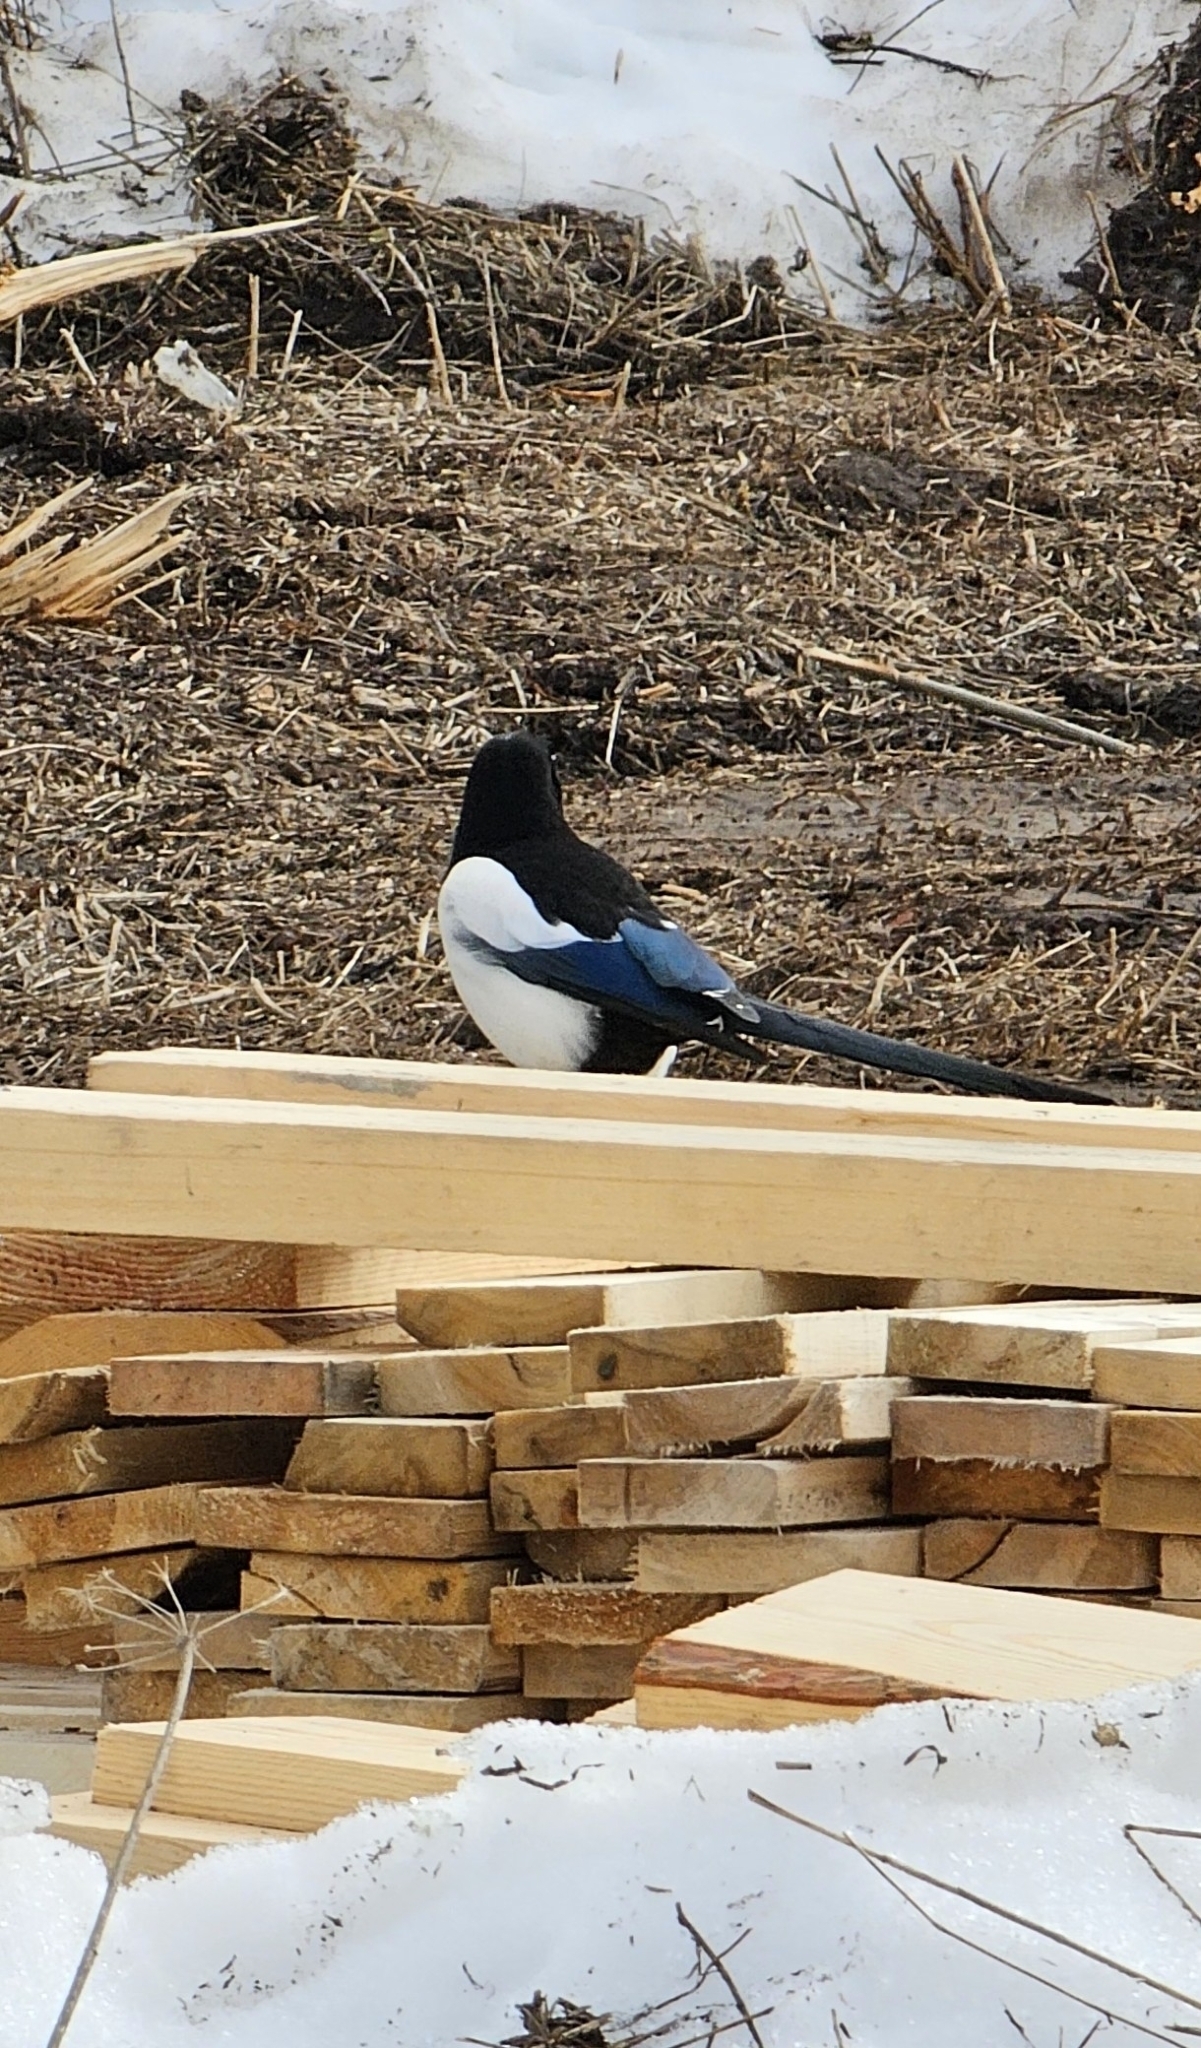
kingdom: Animalia
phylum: Chordata
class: Aves
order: Passeriformes
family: Corvidae
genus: Pica
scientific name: Pica pica
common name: Eurasian magpie
